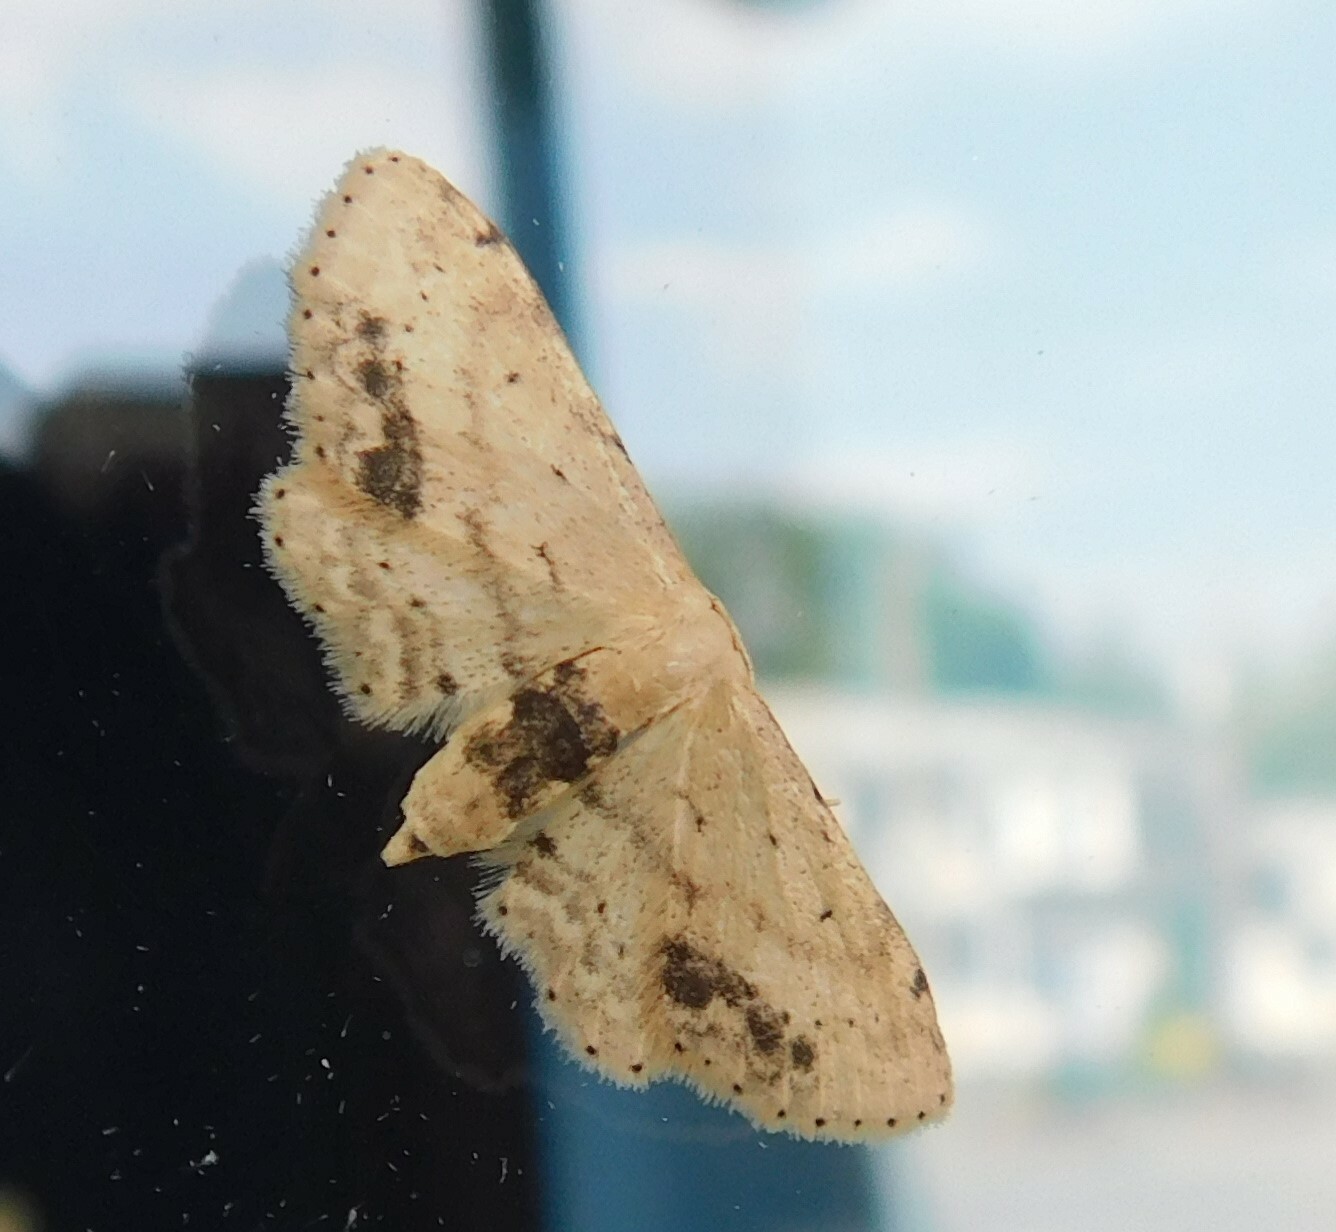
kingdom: Animalia
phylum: Arthropoda
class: Insecta
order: Lepidoptera
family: Geometridae
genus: Idaea
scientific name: Idaea dimidiata
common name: Single-dotted wave
